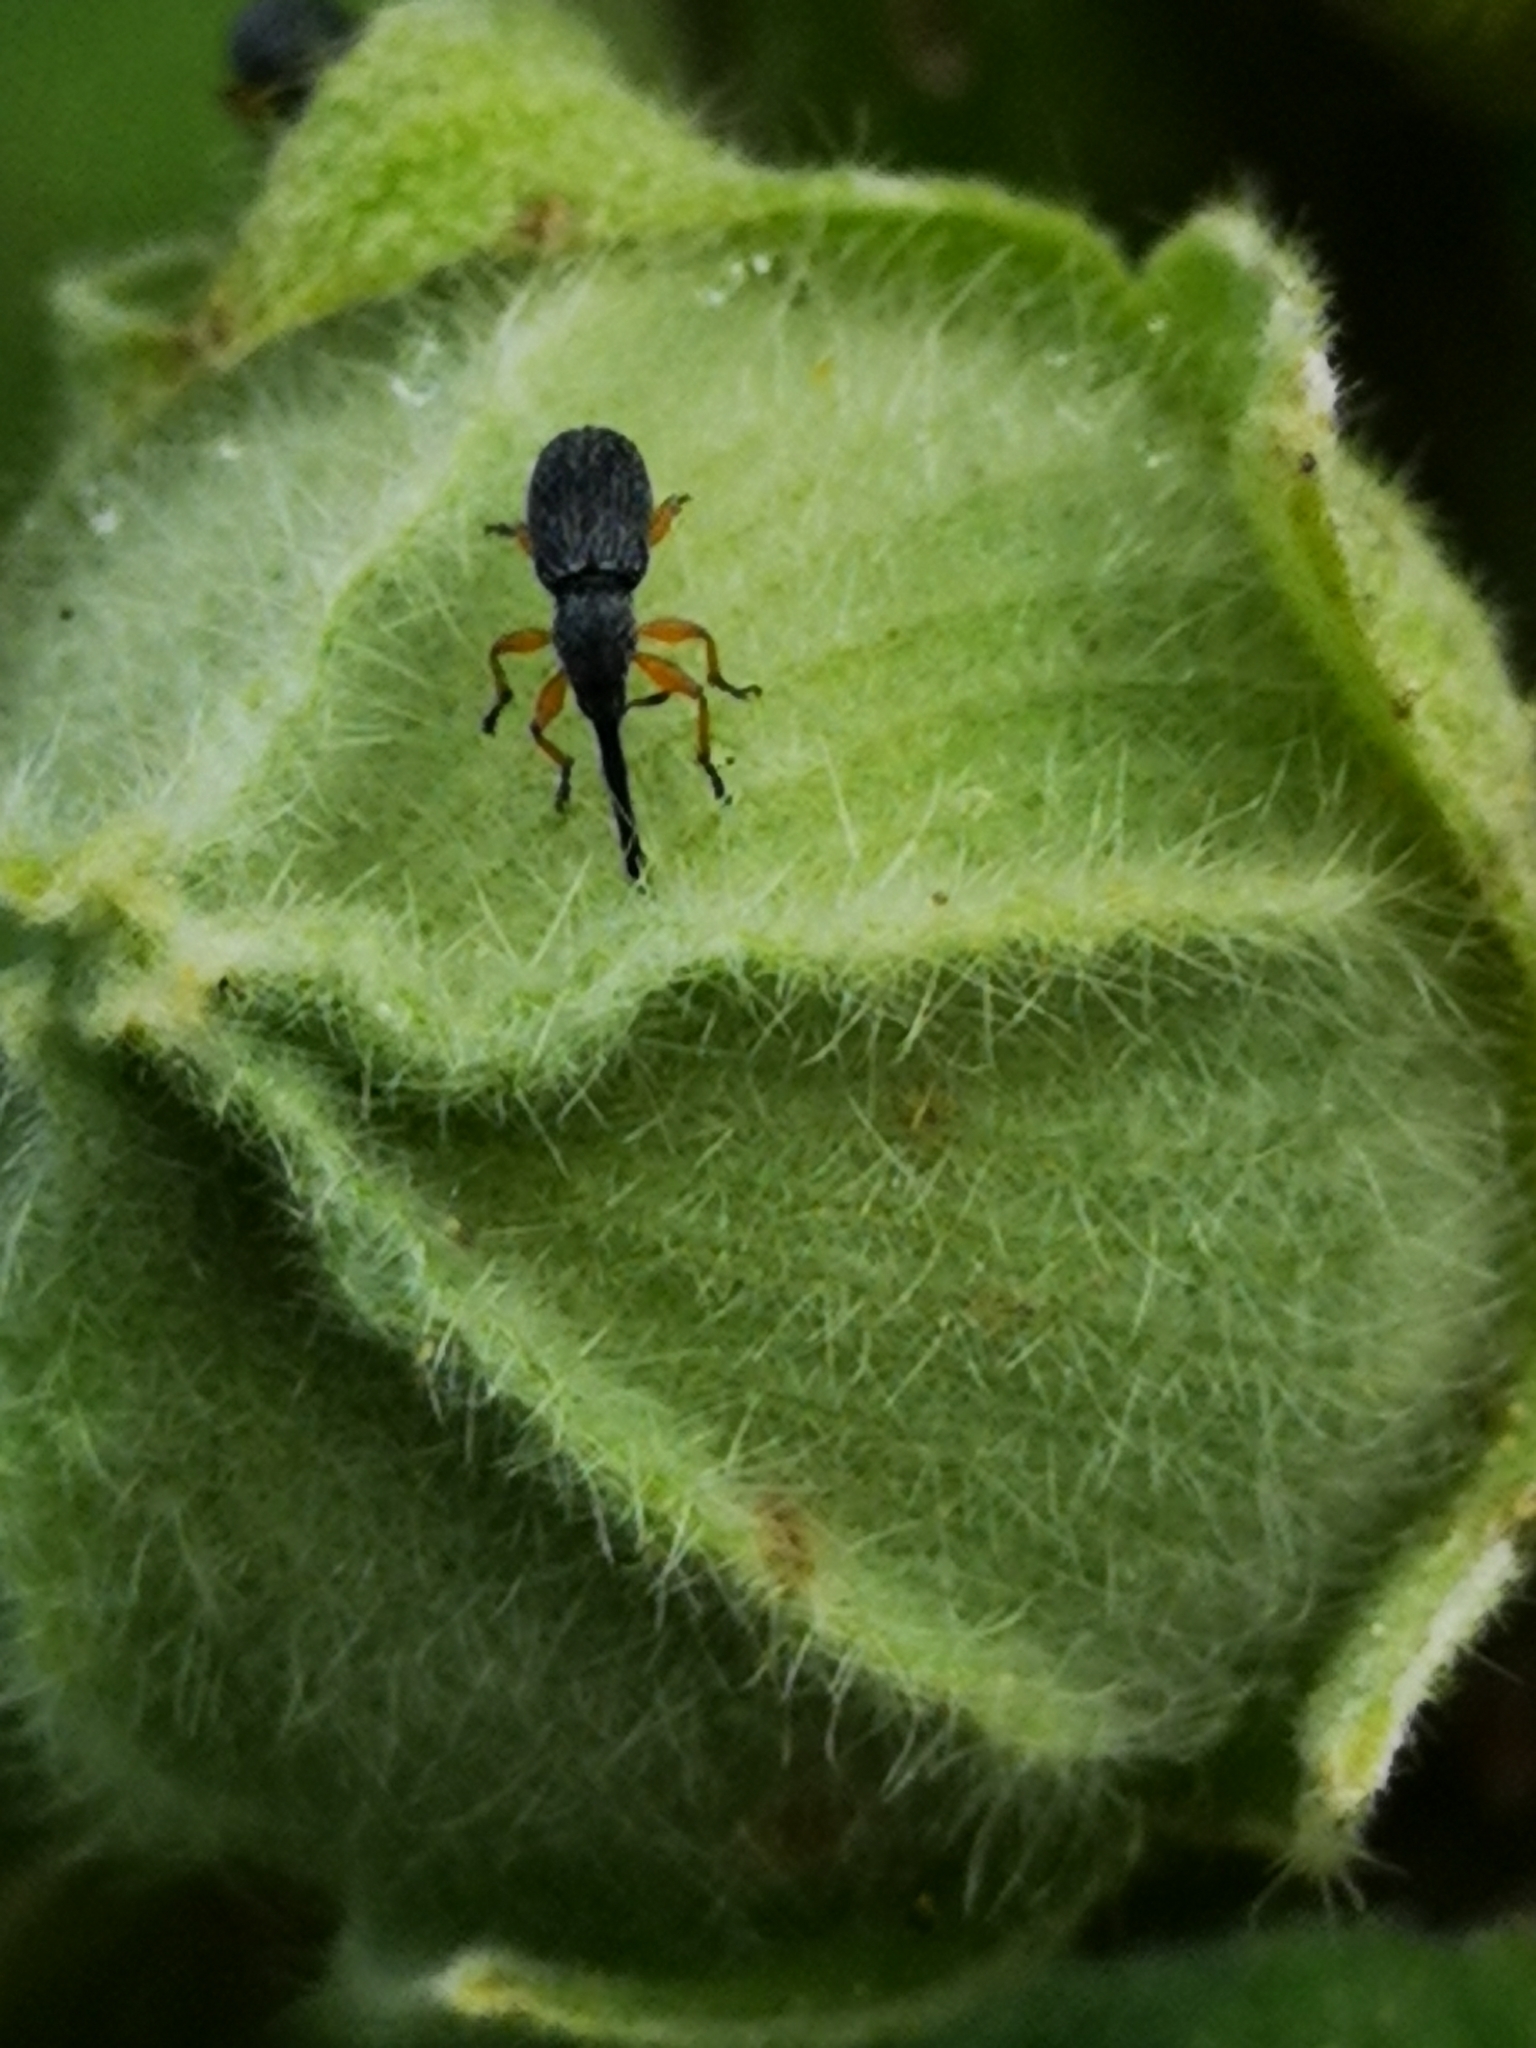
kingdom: Animalia
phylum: Arthropoda
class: Insecta
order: Coleoptera
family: Brentidae
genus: Rhopalapion
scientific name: Rhopalapion longirostre
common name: Hollyhock weevil
